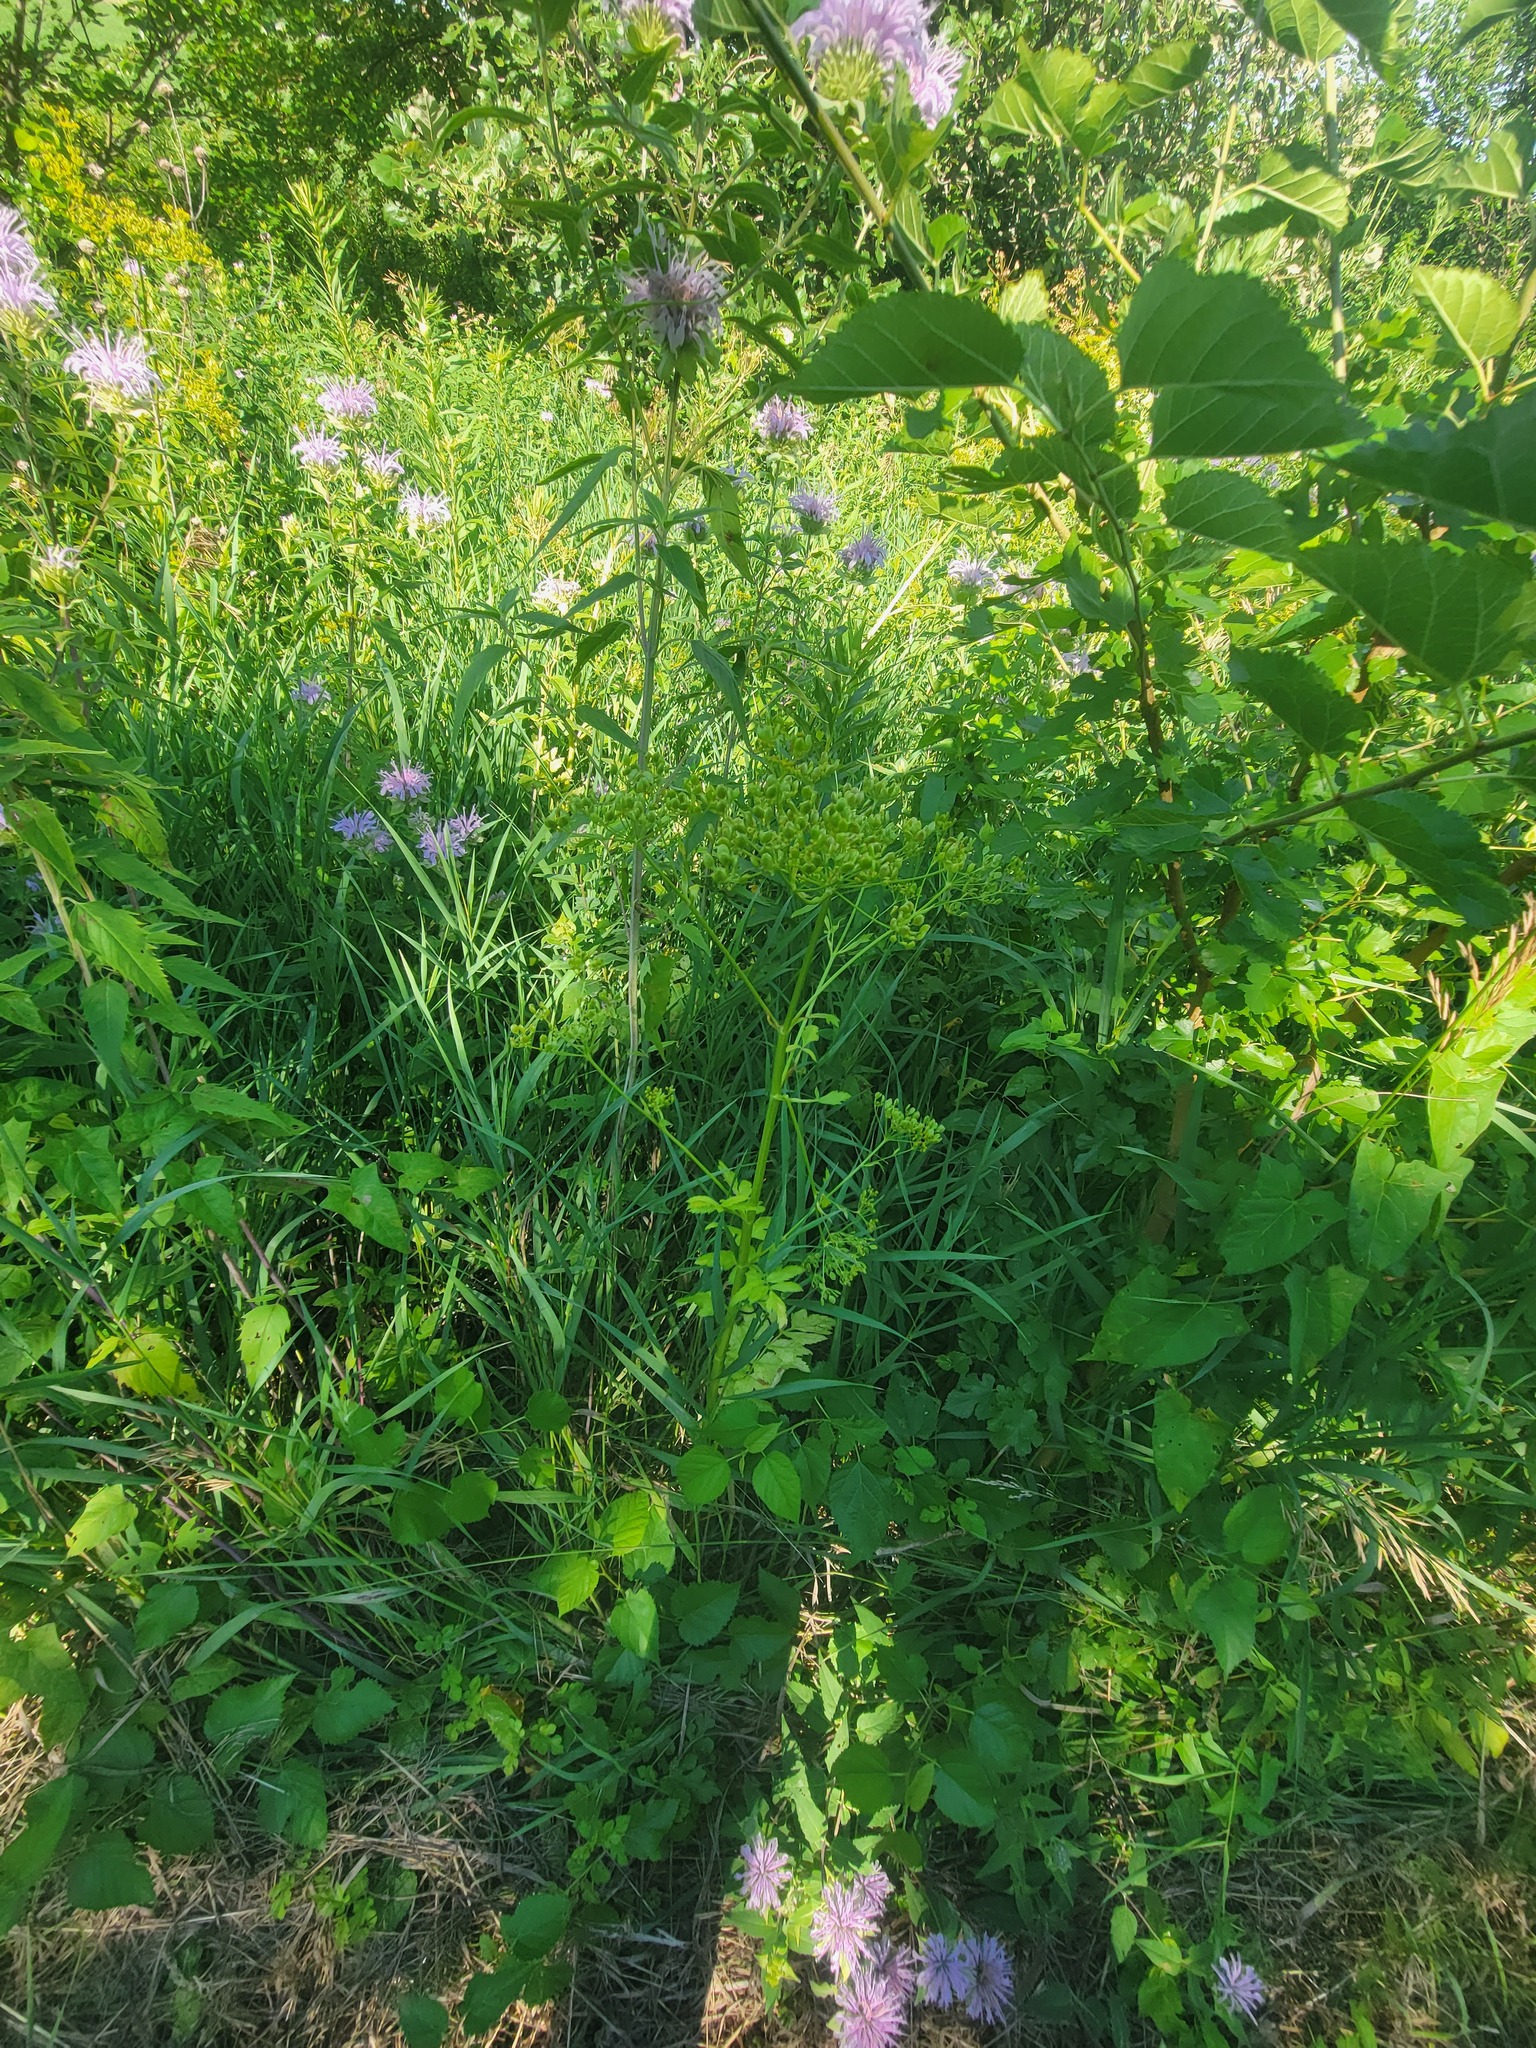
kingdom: Plantae
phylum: Tracheophyta
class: Magnoliopsida
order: Lamiales
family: Lamiaceae
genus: Monarda
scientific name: Monarda fistulosa
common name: Purple beebalm
